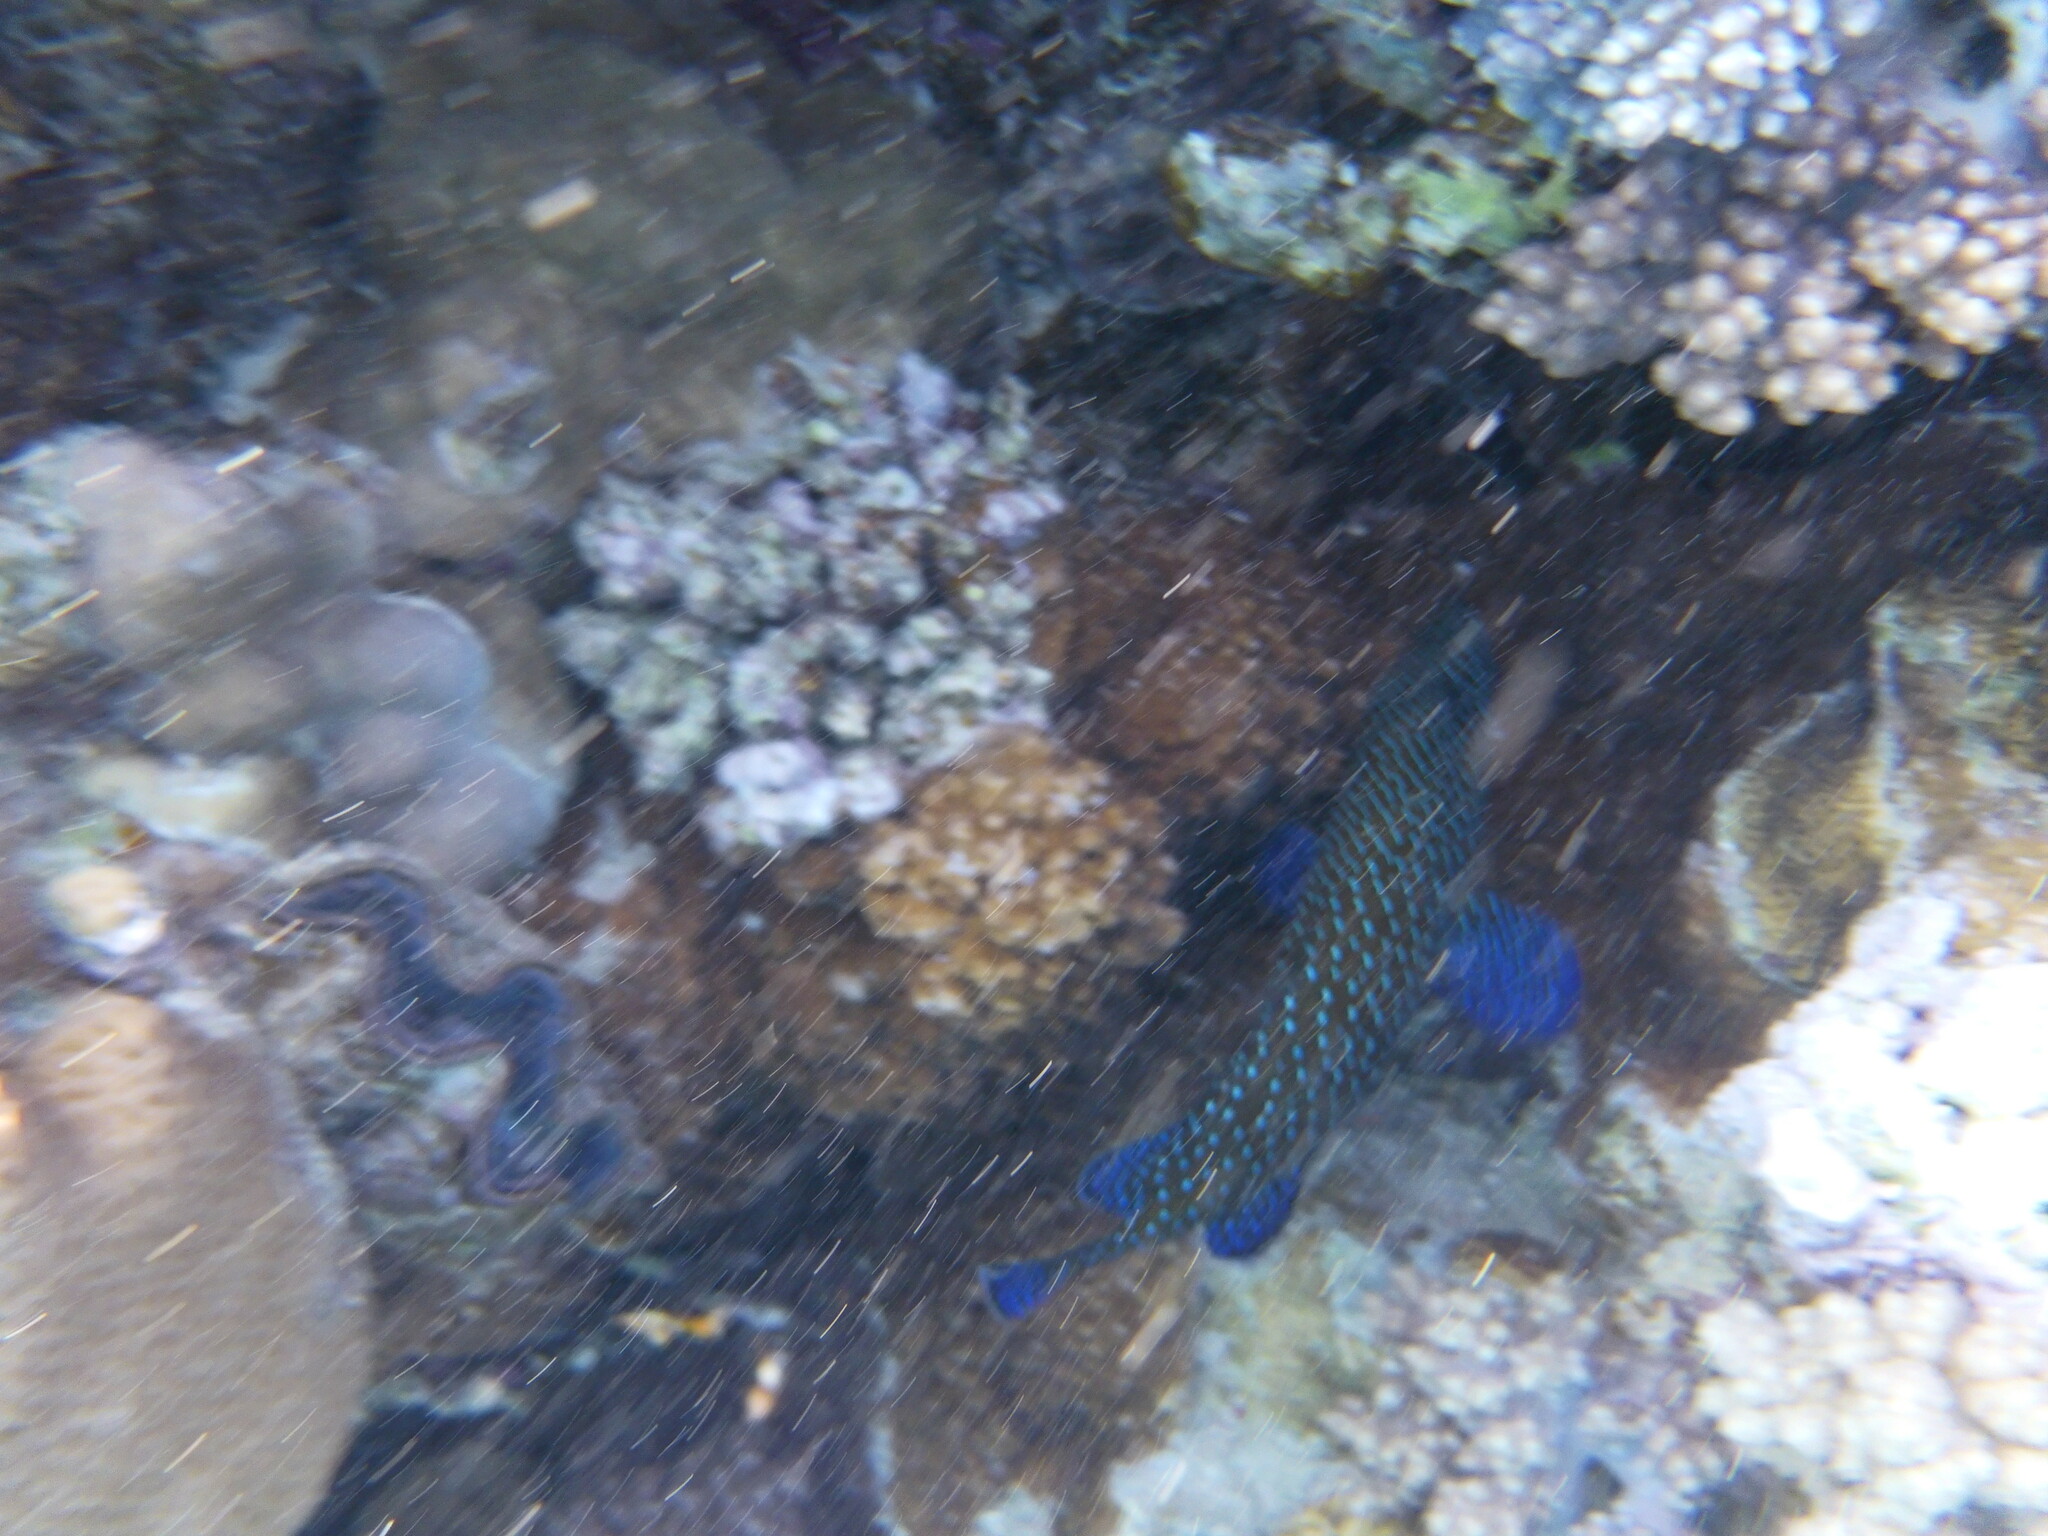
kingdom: Animalia
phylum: Chordata
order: Perciformes
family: Serranidae
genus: Cephalopholis
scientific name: Cephalopholis argus
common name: Peacock grouper
